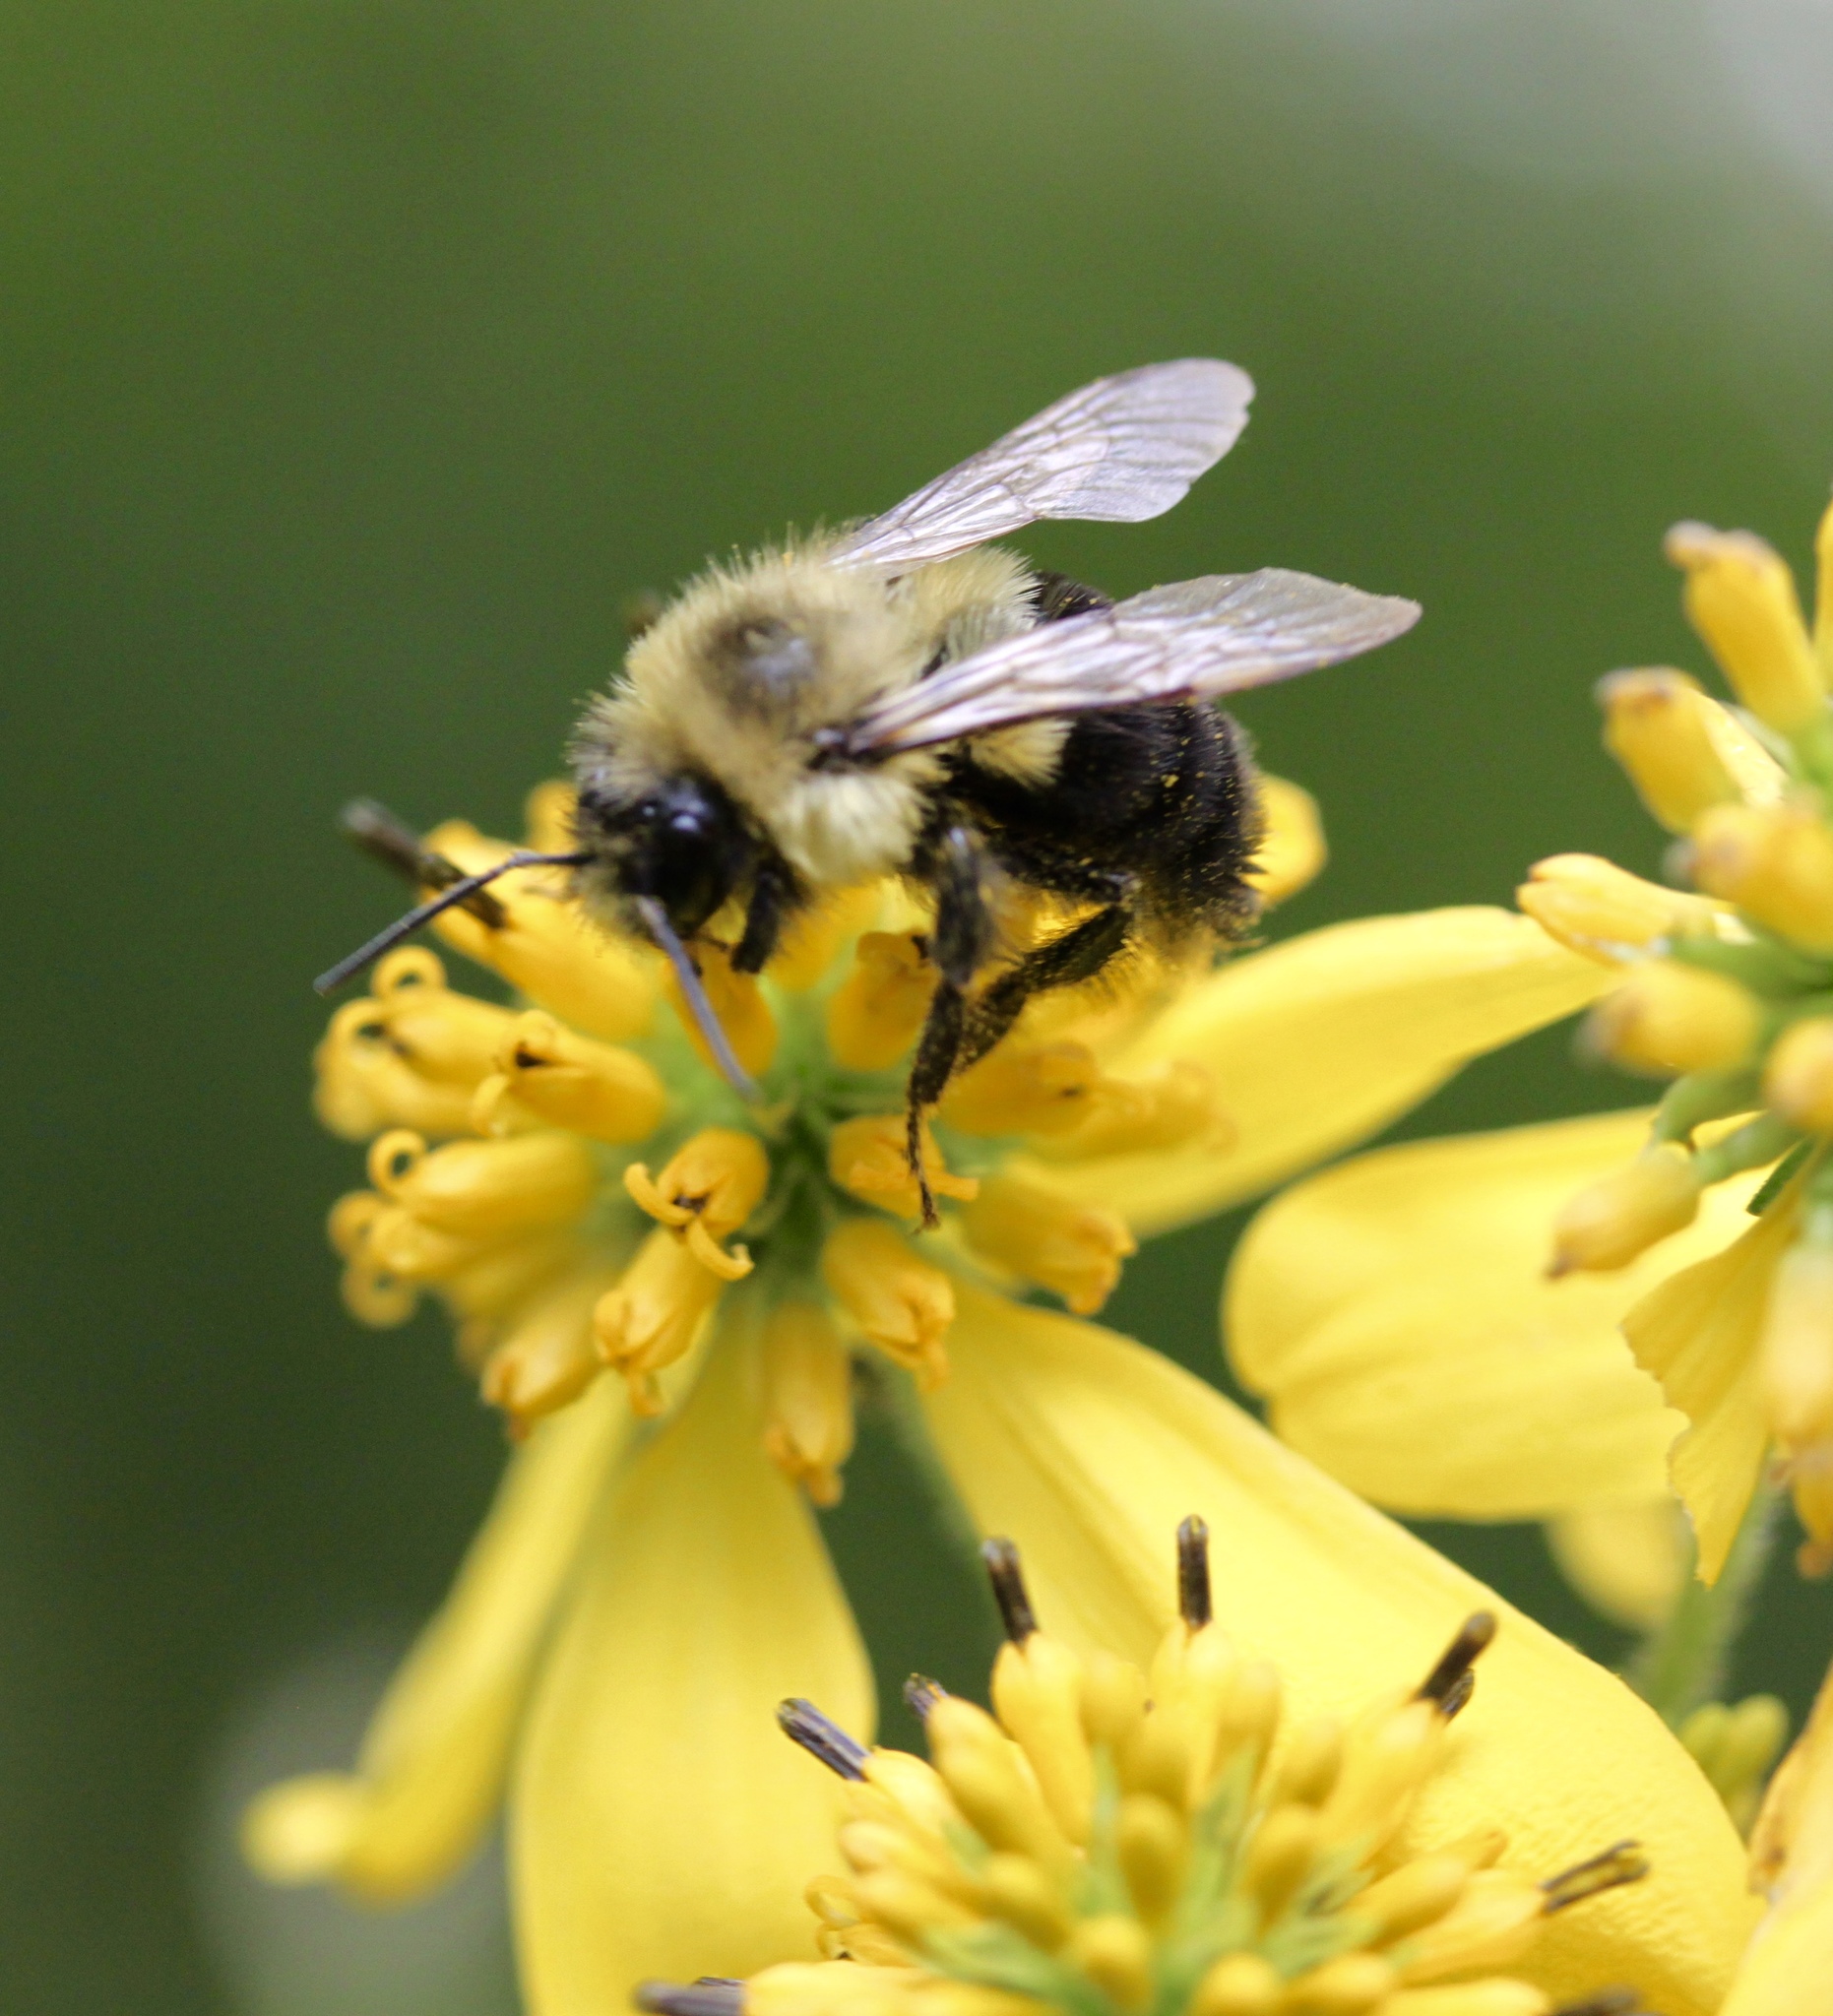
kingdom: Animalia
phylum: Arthropoda
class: Insecta
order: Hymenoptera
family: Apidae
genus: Bombus
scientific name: Bombus impatiens
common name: Common eastern bumble bee
